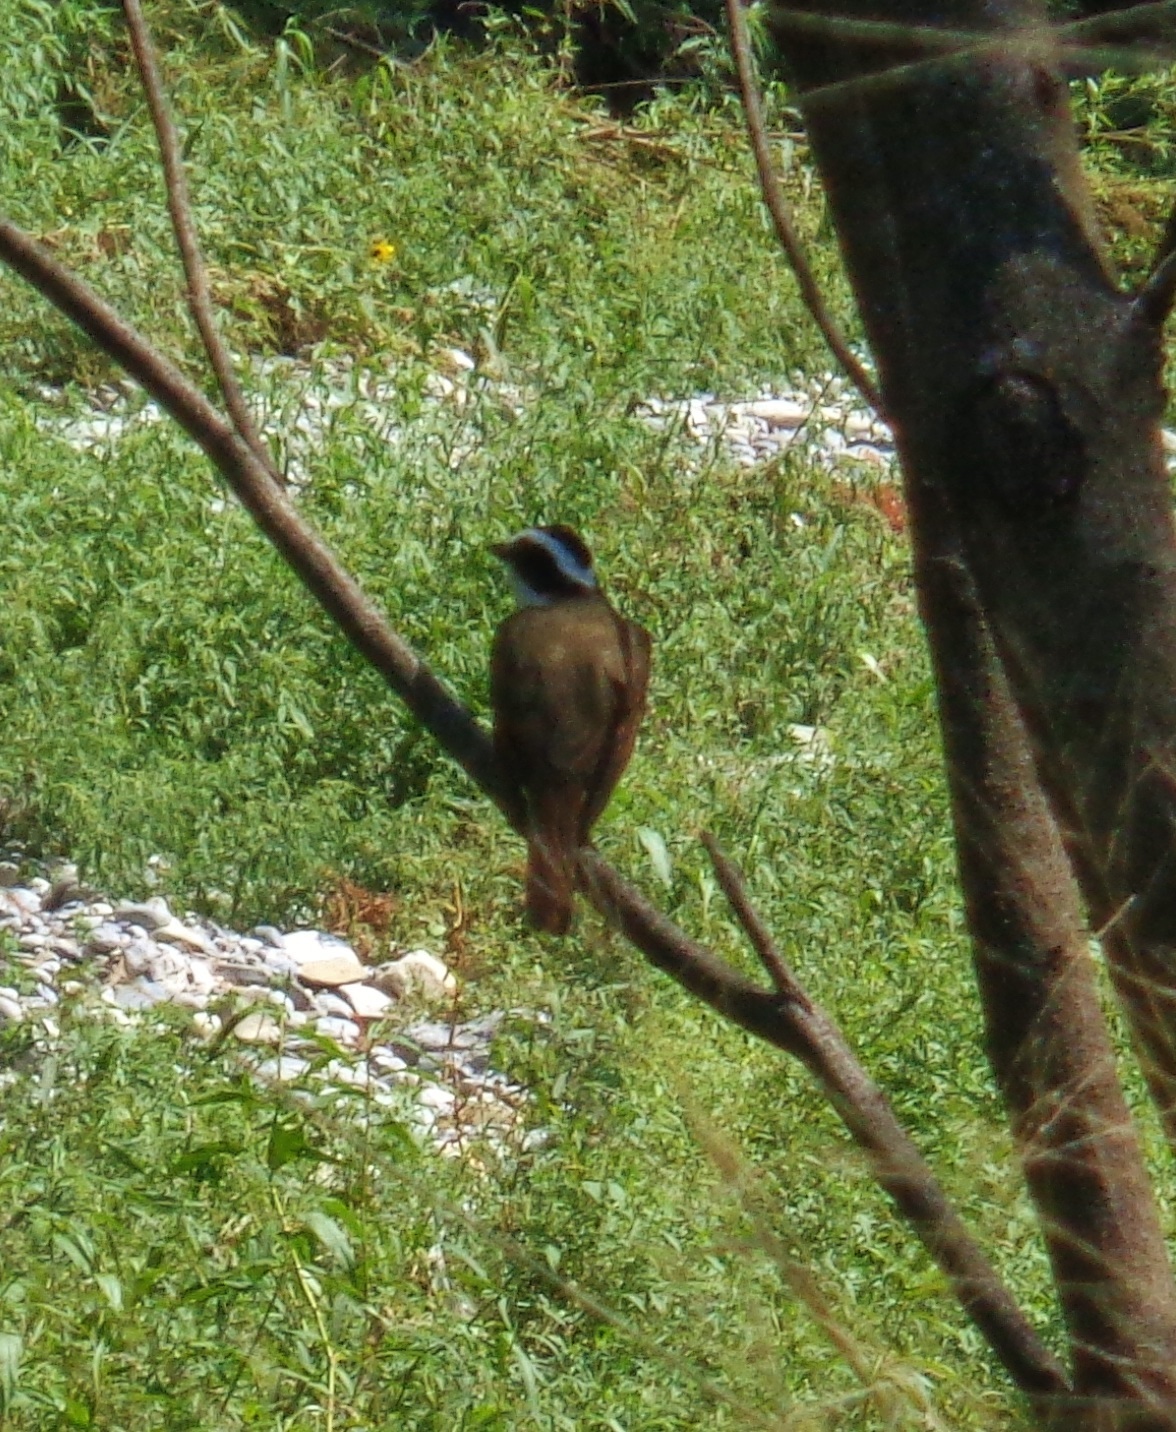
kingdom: Animalia
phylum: Chordata
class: Aves
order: Passeriformes
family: Tyrannidae
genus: Pitangus
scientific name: Pitangus sulphuratus
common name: Great kiskadee
